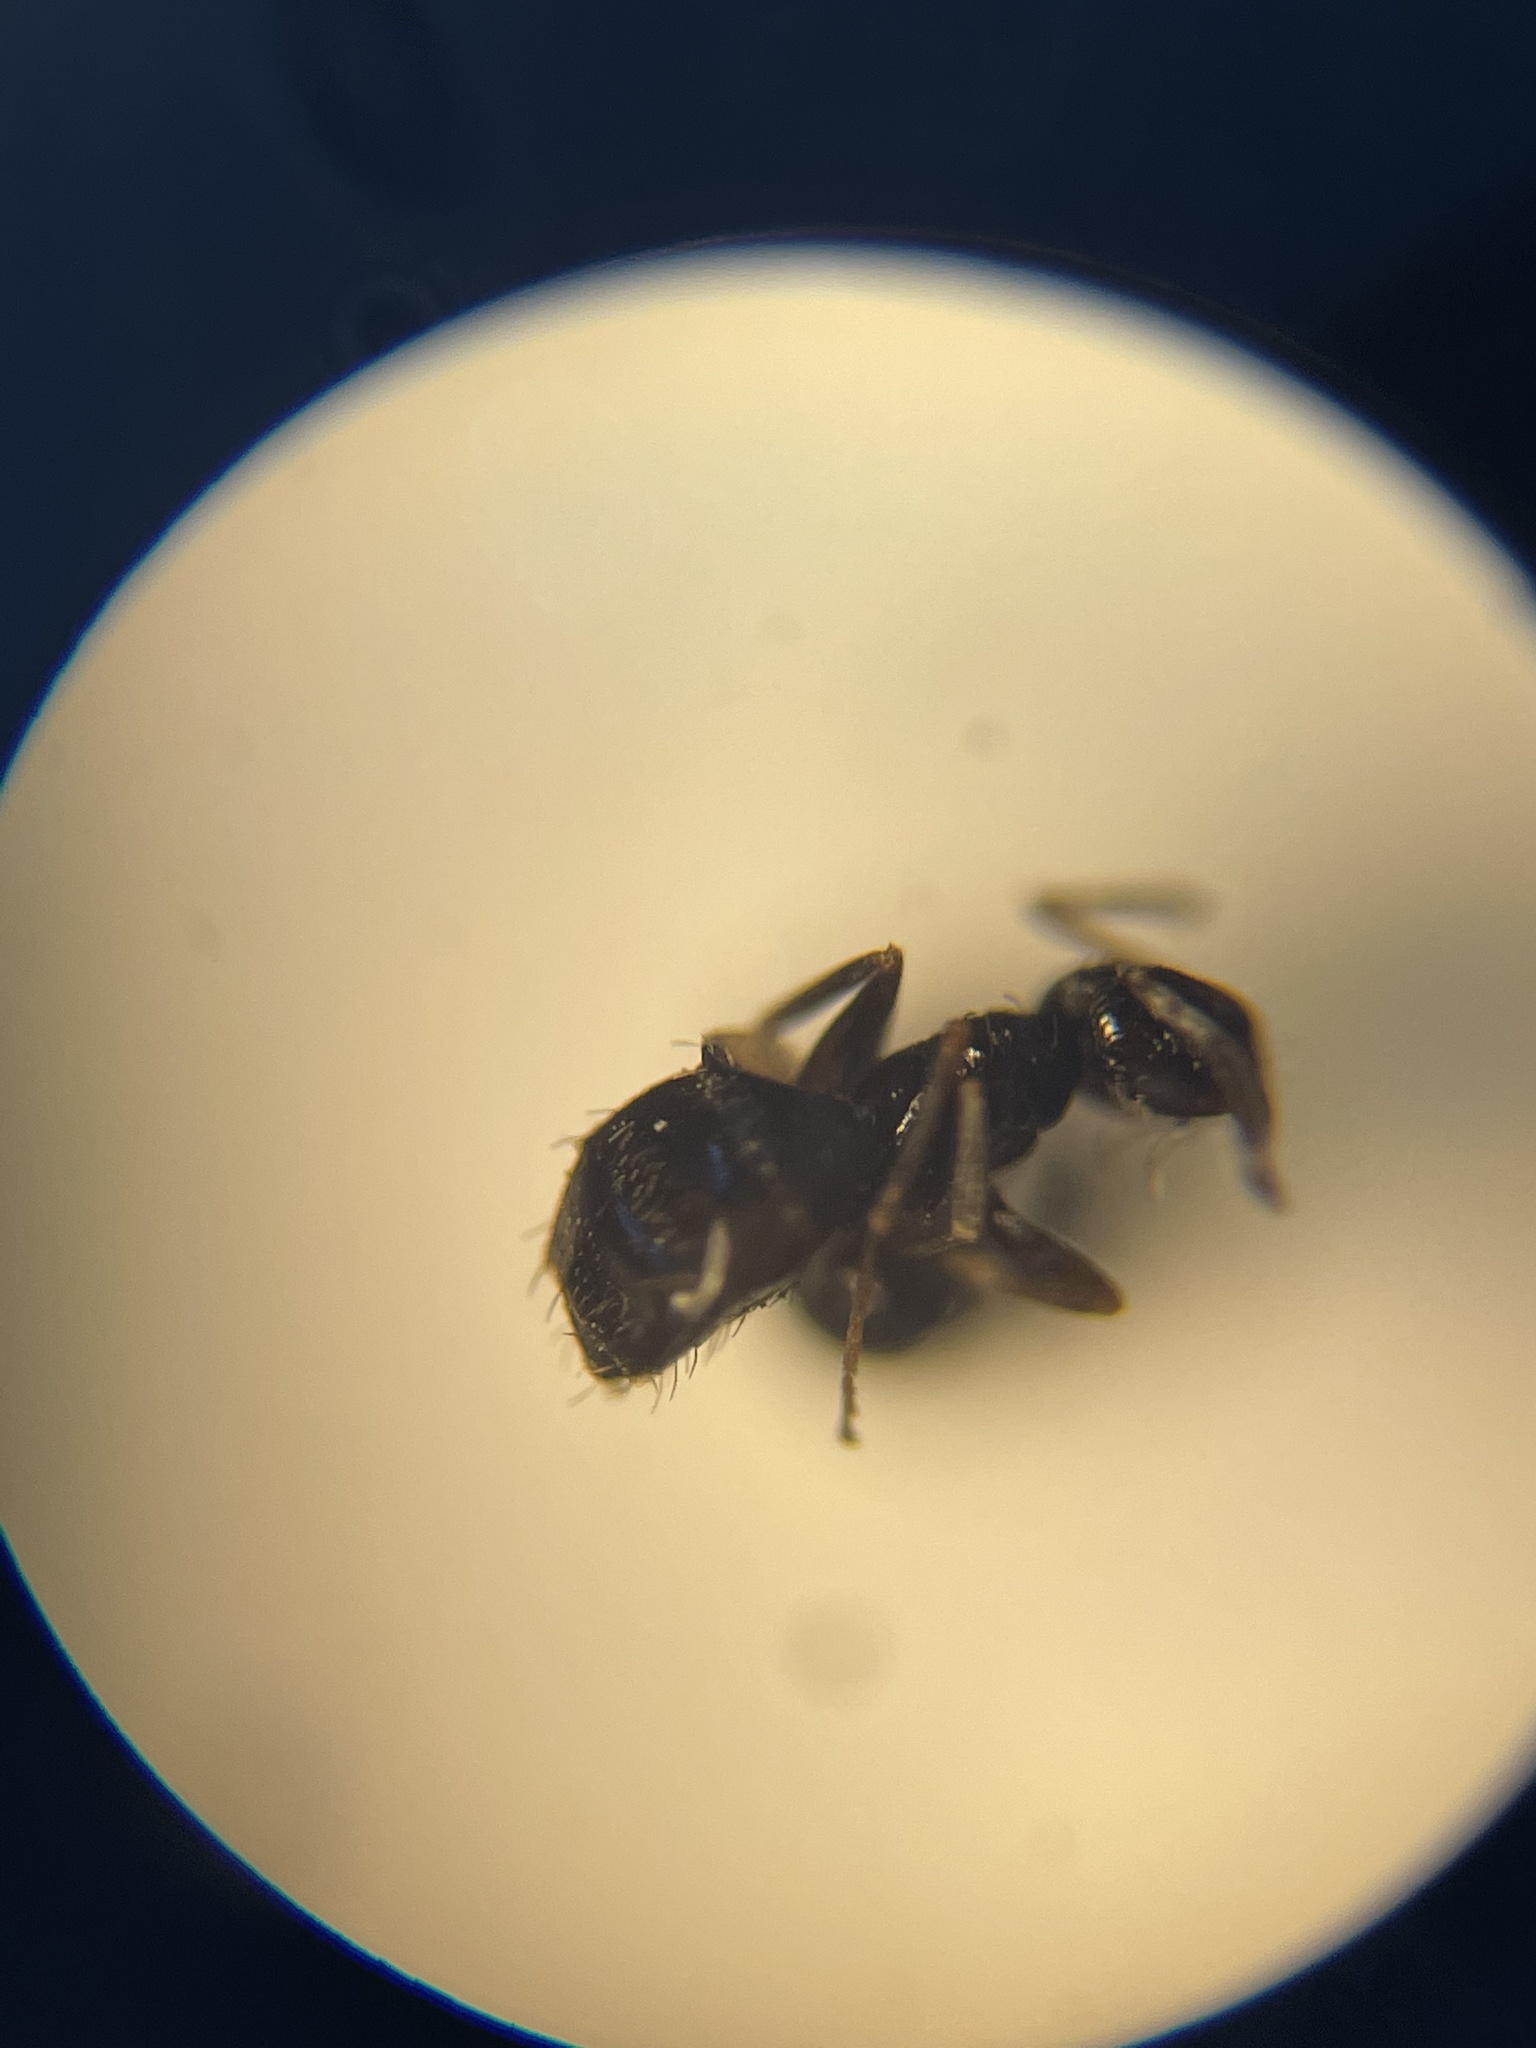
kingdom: Animalia
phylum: Arthropoda
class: Insecta
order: Hymenoptera
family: Formicidae
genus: Brachymyrmex
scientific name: Brachymyrmex patagonicus
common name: Dark rover ant
